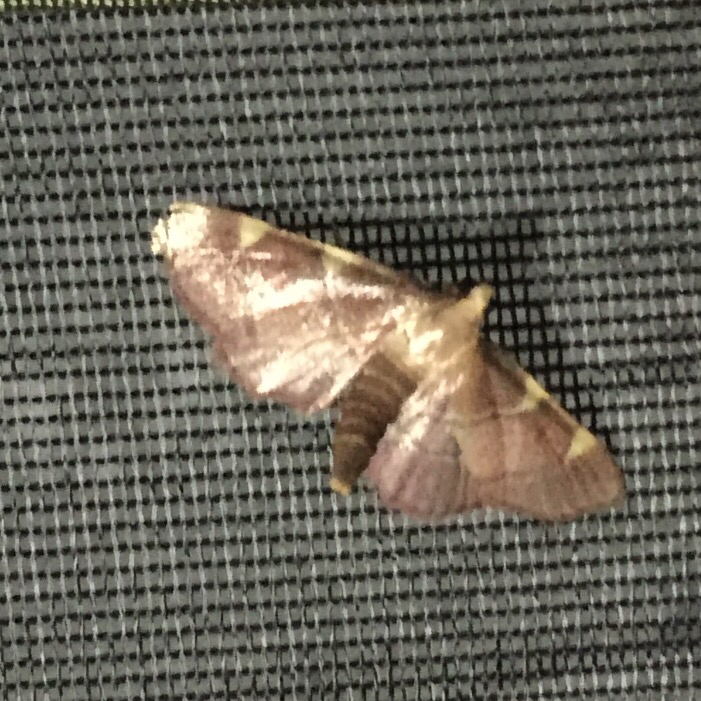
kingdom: Animalia
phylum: Arthropoda
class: Insecta
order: Lepidoptera
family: Pyralidae
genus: Hypsopygia
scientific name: Hypsopygia olinalis
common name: Yellow-fringed dolichomia moth
